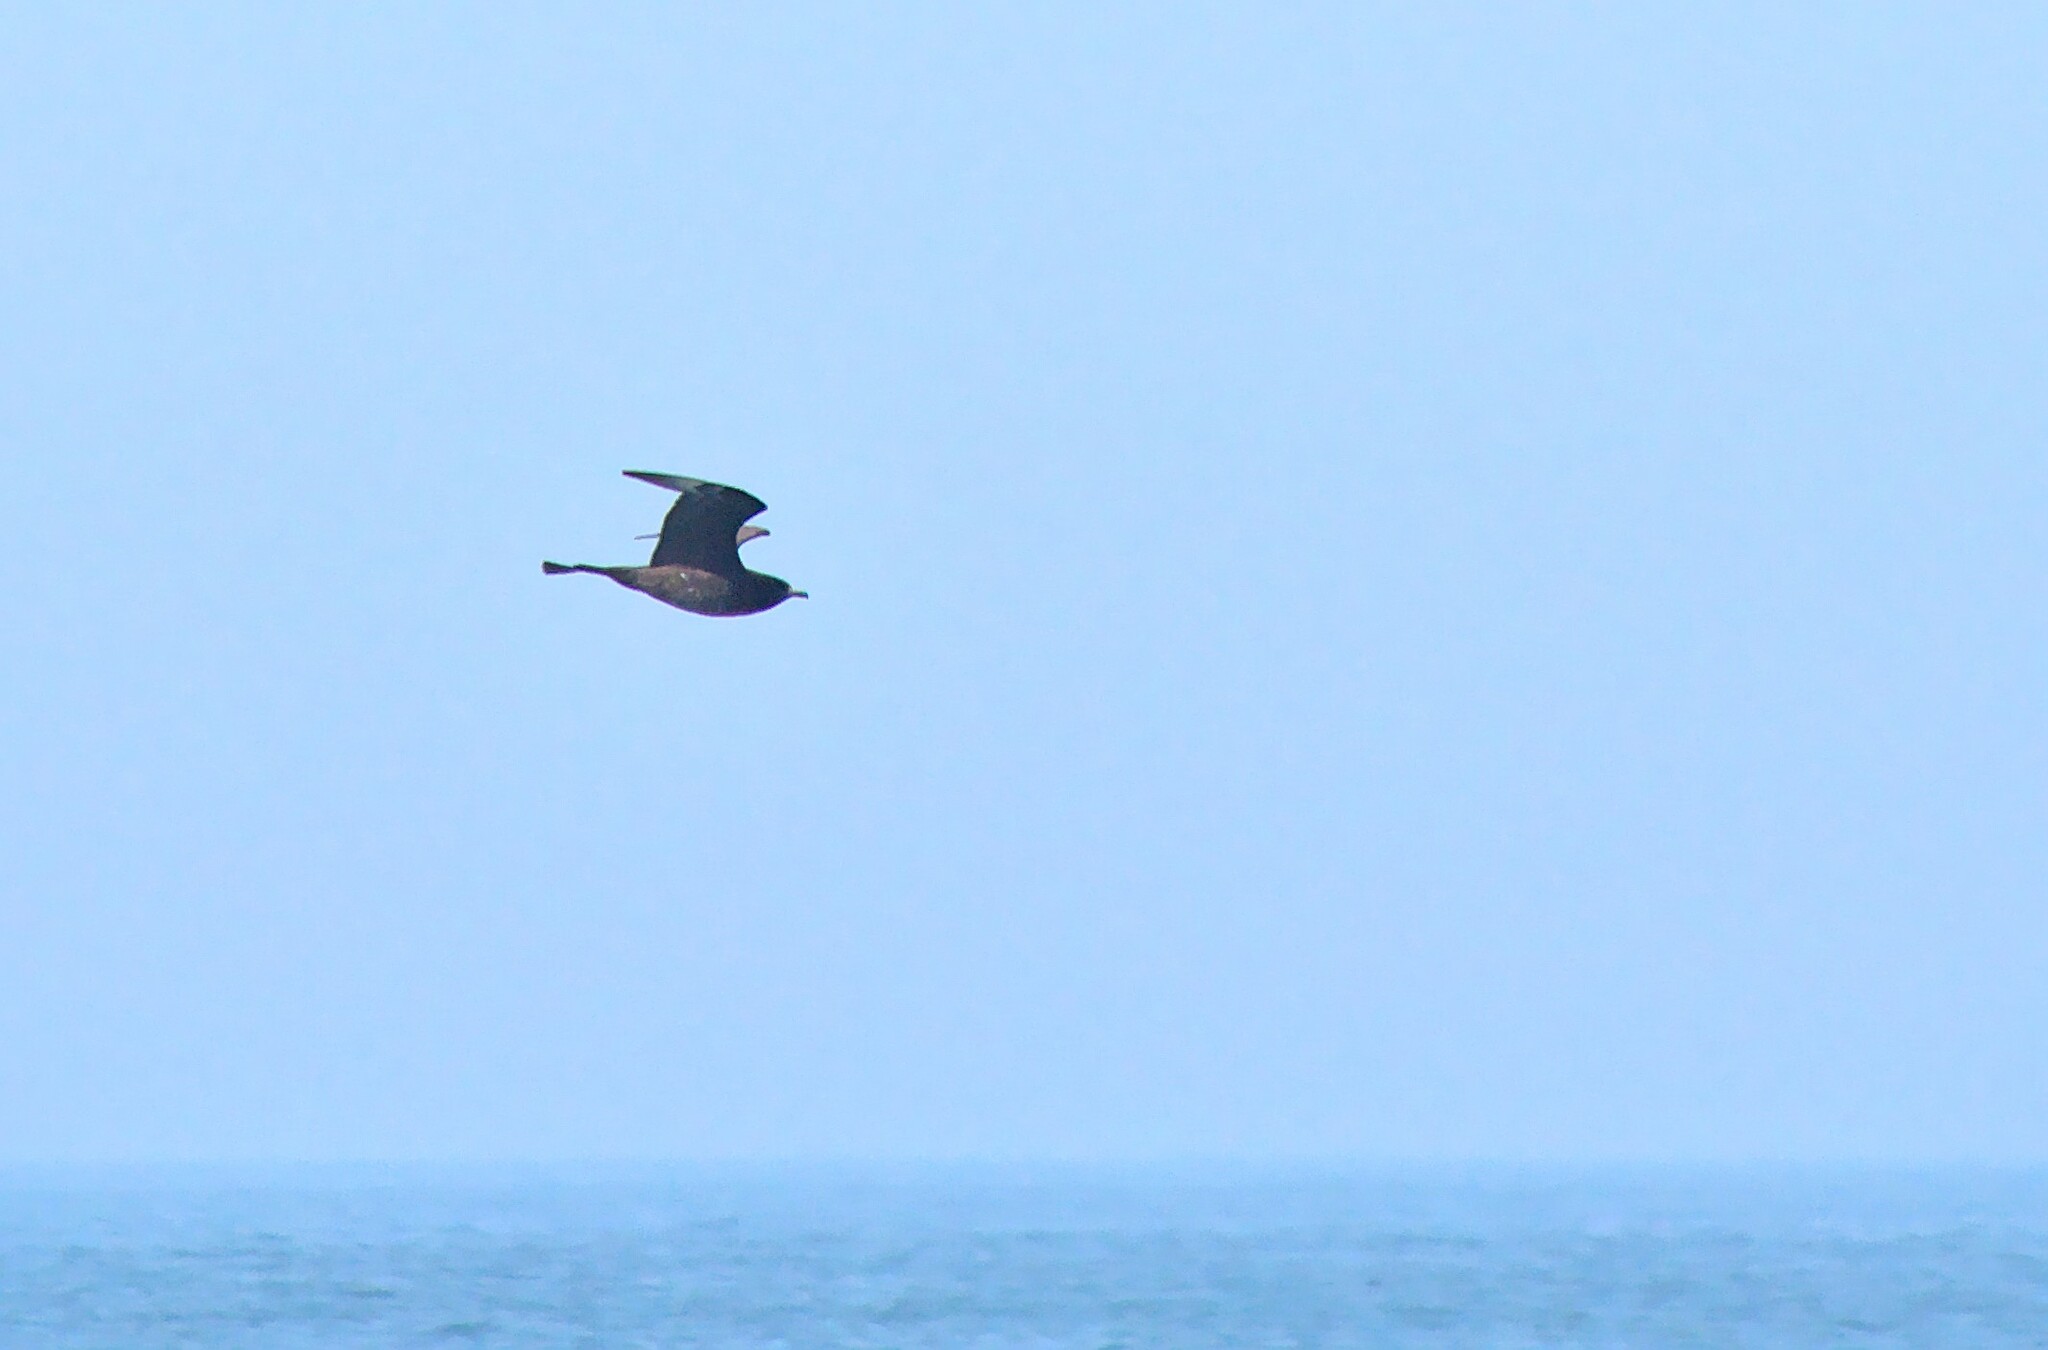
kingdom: Animalia
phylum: Chordata
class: Aves
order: Charadriiformes
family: Stercorariidae
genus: Stercorarius
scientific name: Stercorarius pomarinus
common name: Pomarine jaeger
